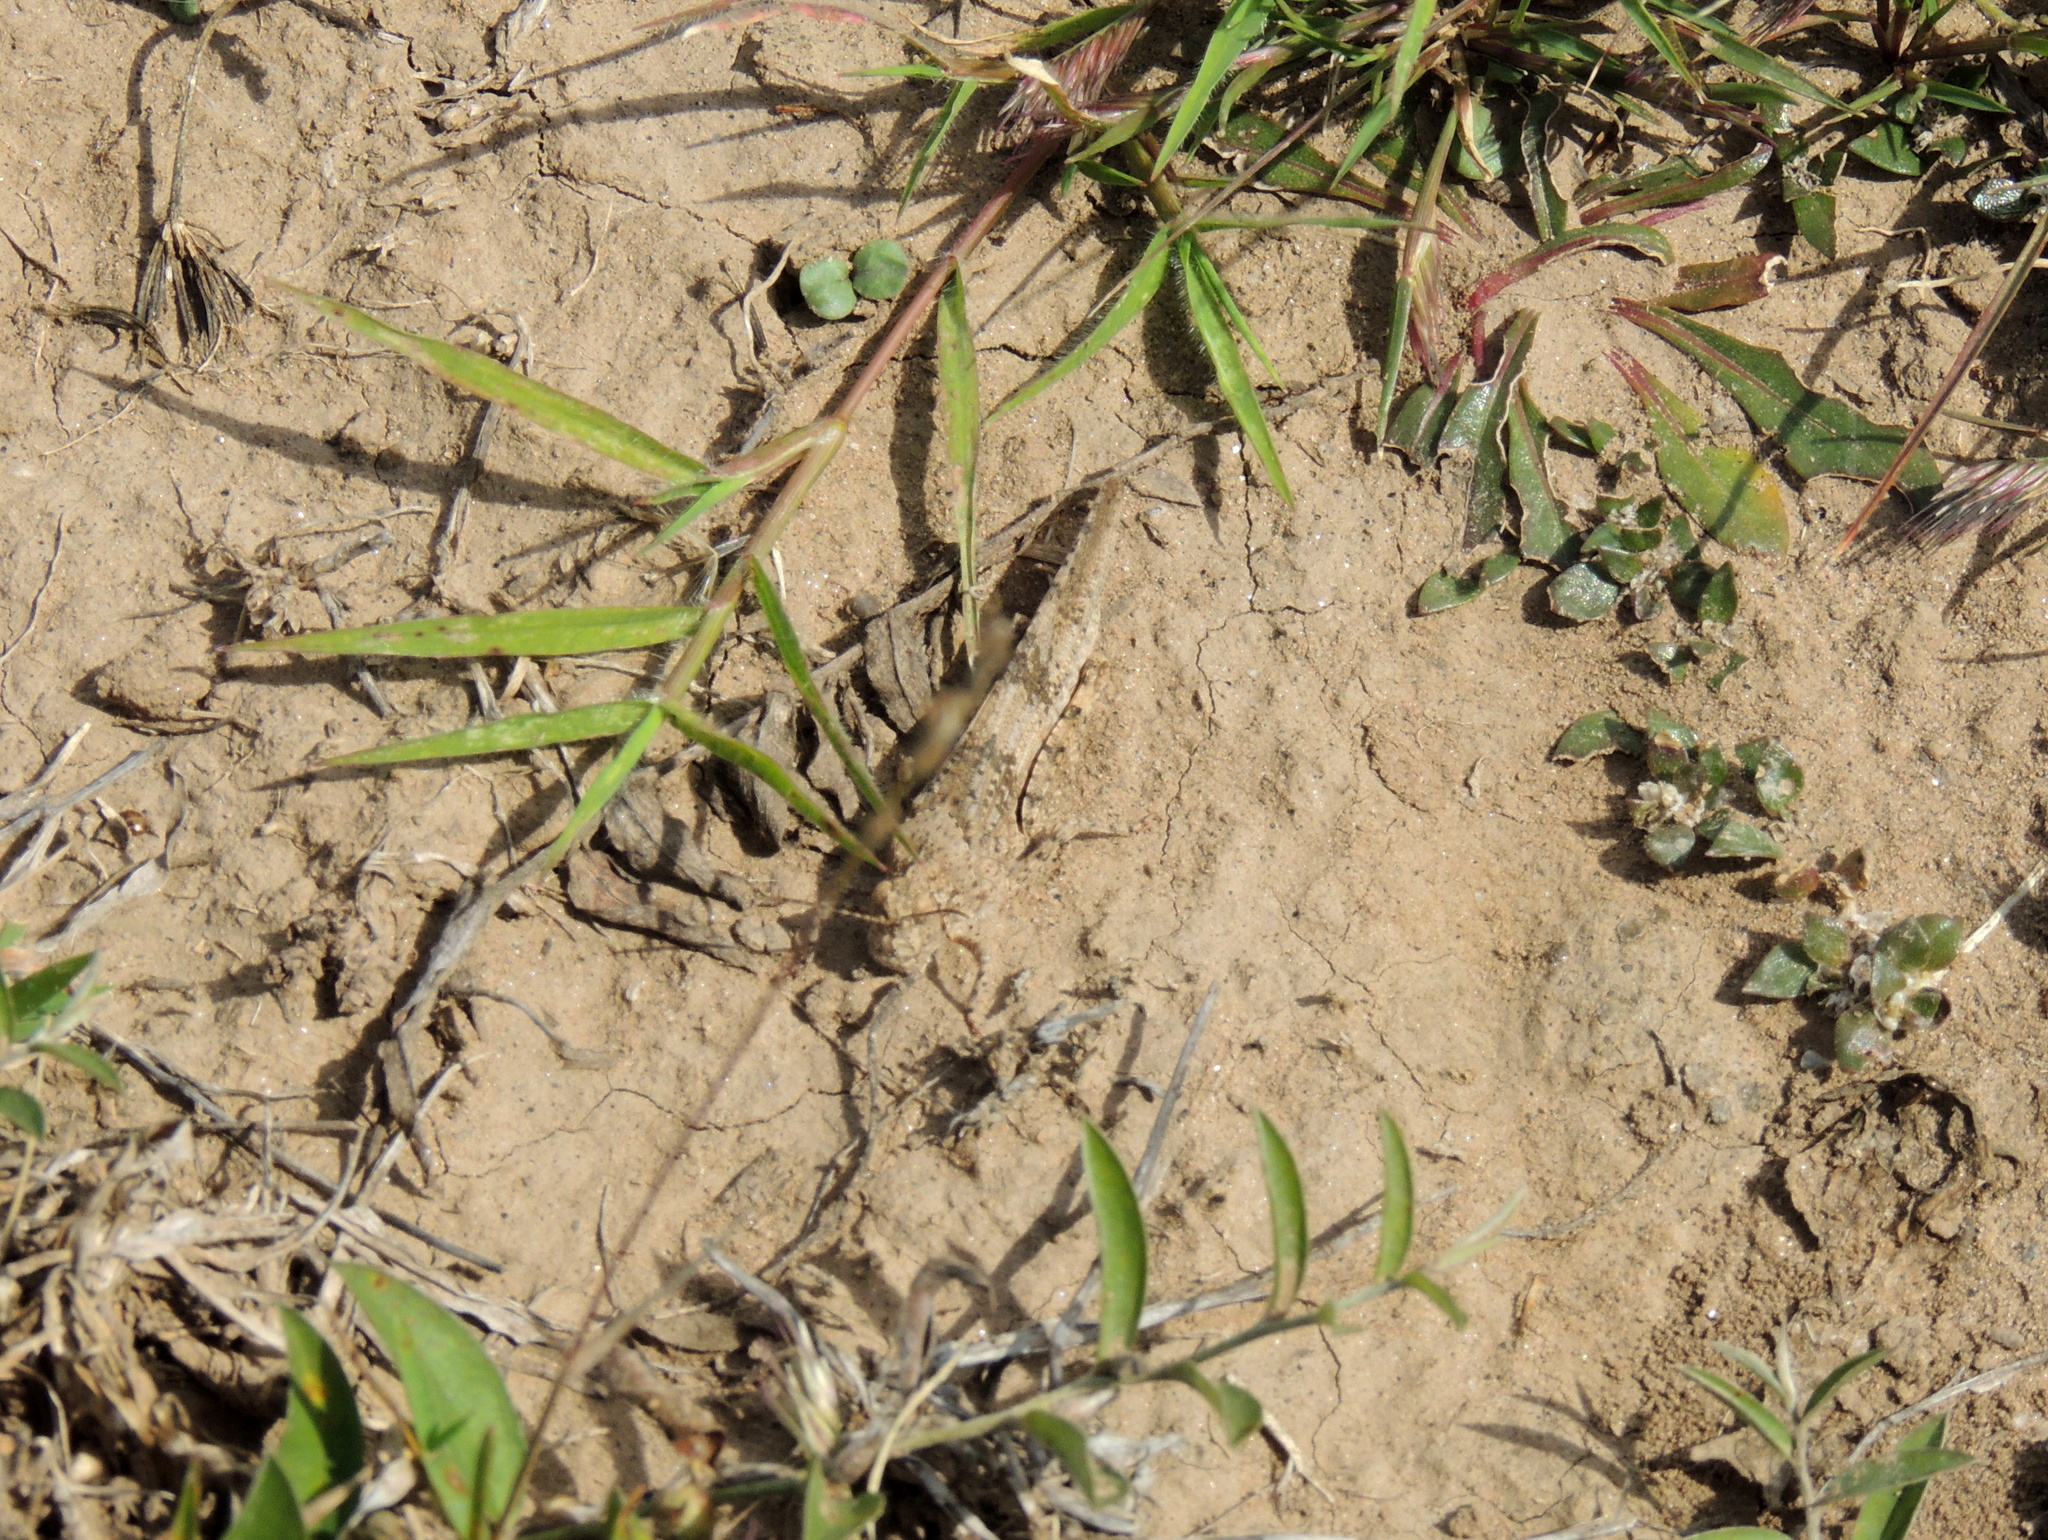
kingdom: Animalia
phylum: Arthropoda
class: Insecta
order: Orthoptera
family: Acrididae
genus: Trimerotropis
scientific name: Trimerotropis pallidipennis
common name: Pallid-winged grasshopper
